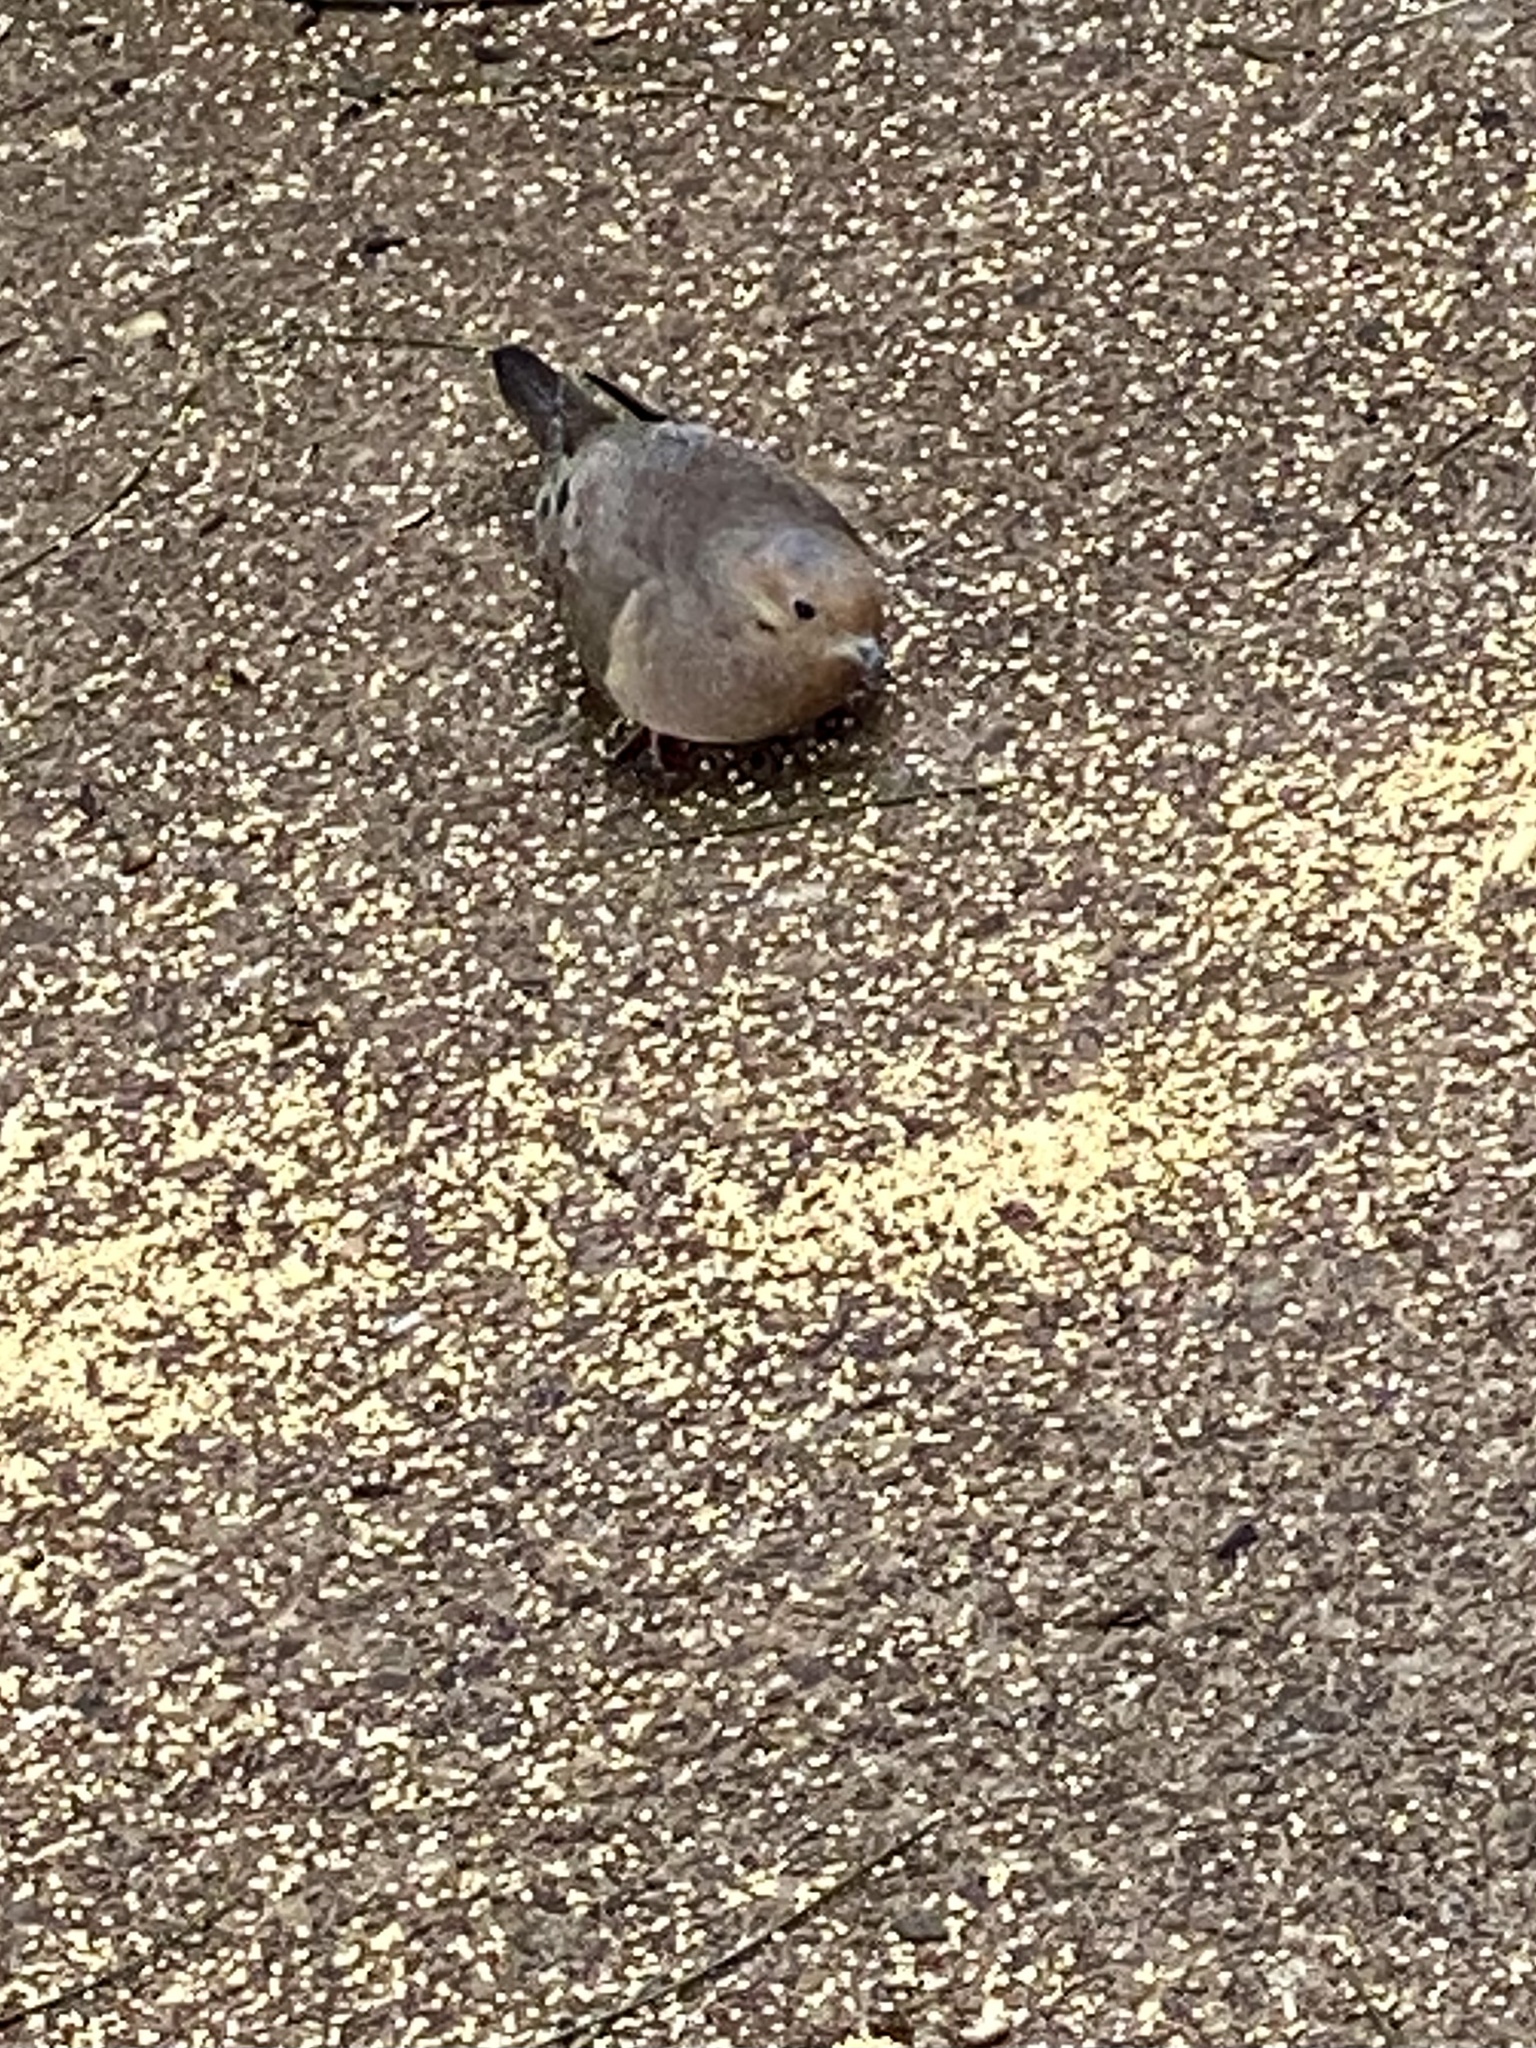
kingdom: Animalia
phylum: Chordata
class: Aves
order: Columbiformes
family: Columbidae
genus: Zenaida
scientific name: Zenaida macroura
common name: Mourning dove
